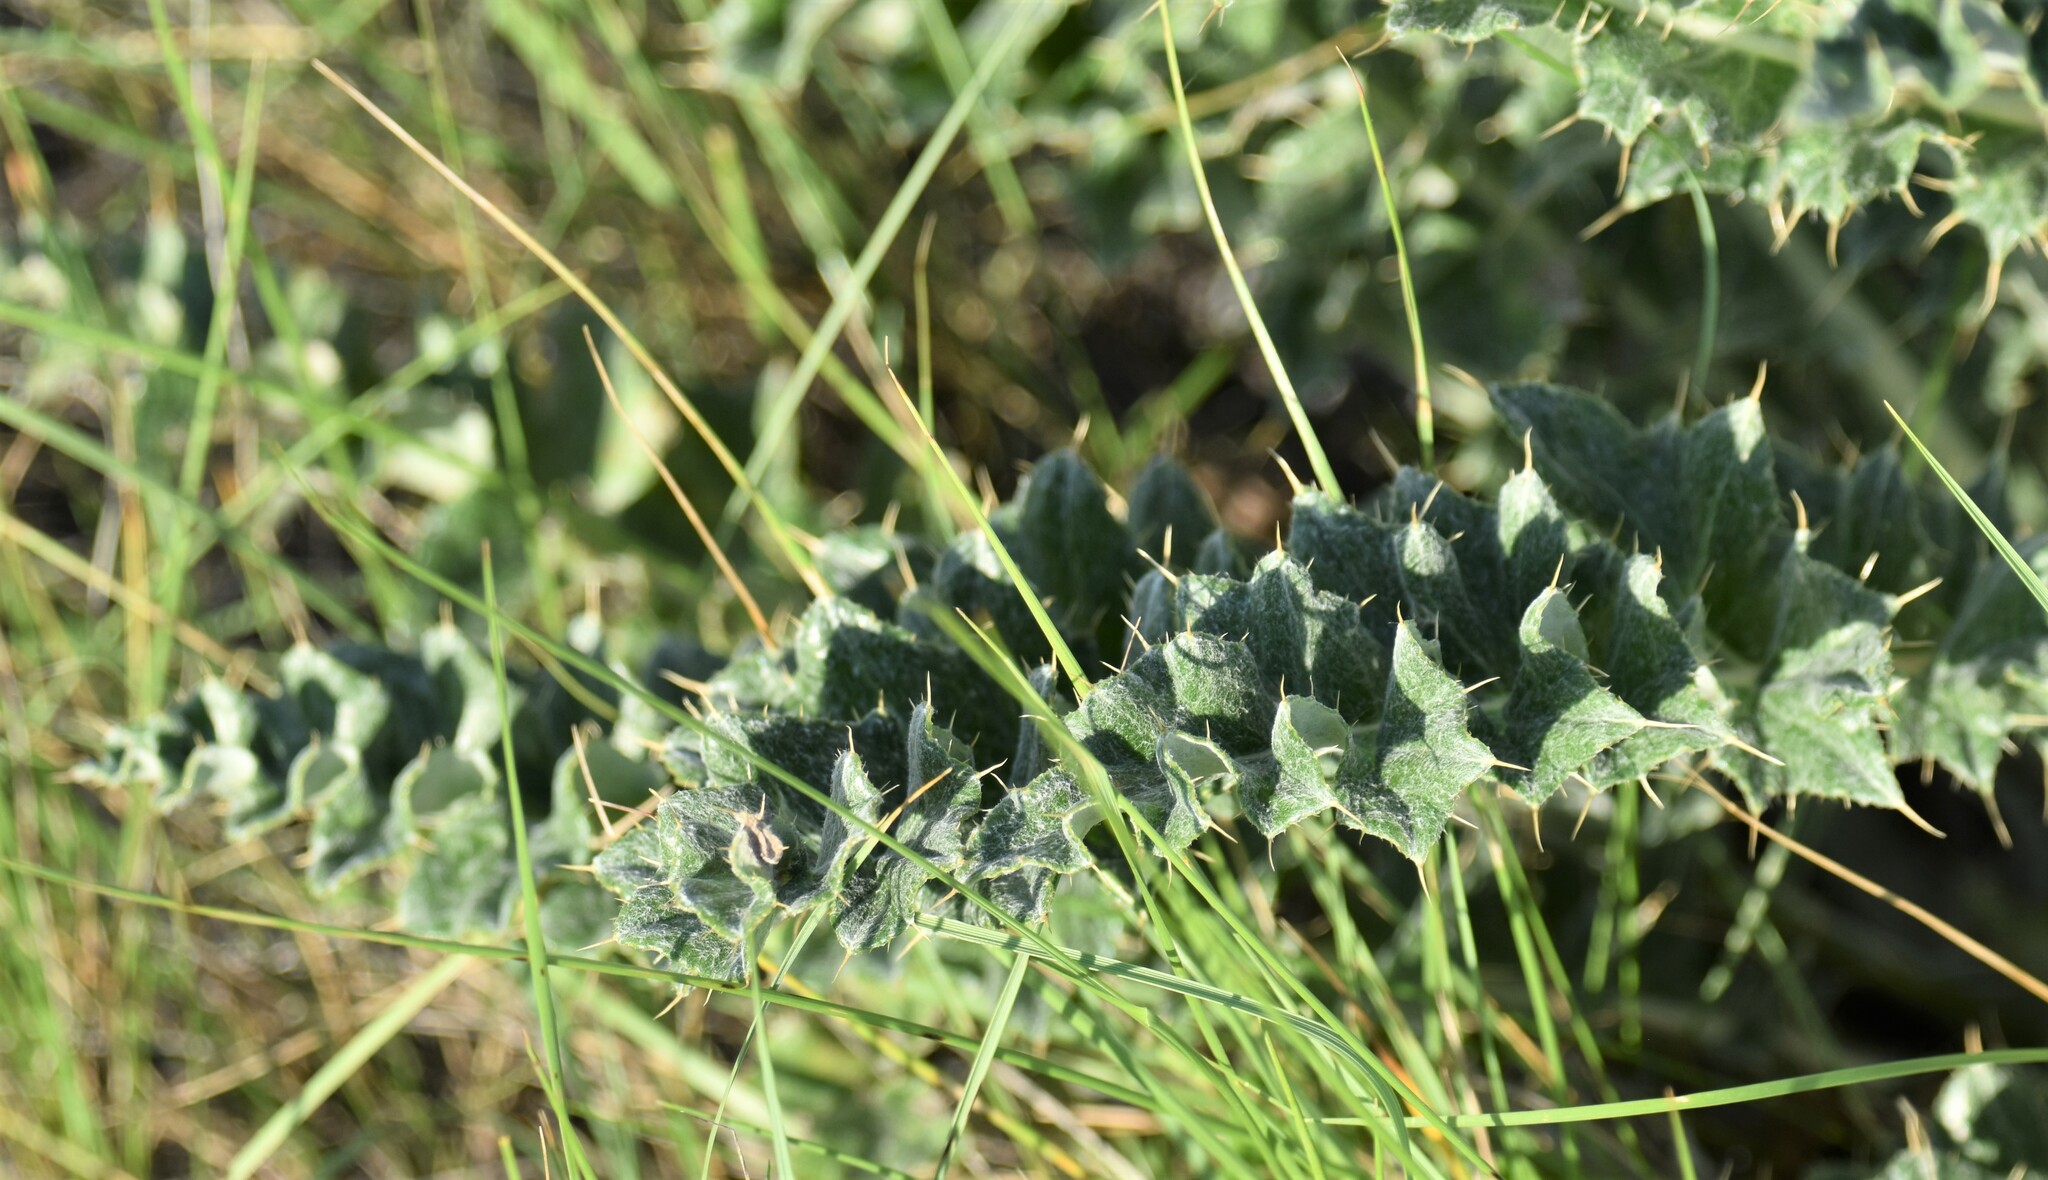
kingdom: Plantae
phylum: Tracheophyta
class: Magnoliopsida
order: Asterales
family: Asteraceae
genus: Cirsium
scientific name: Cirsium undulatum
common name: Pasture thistle
